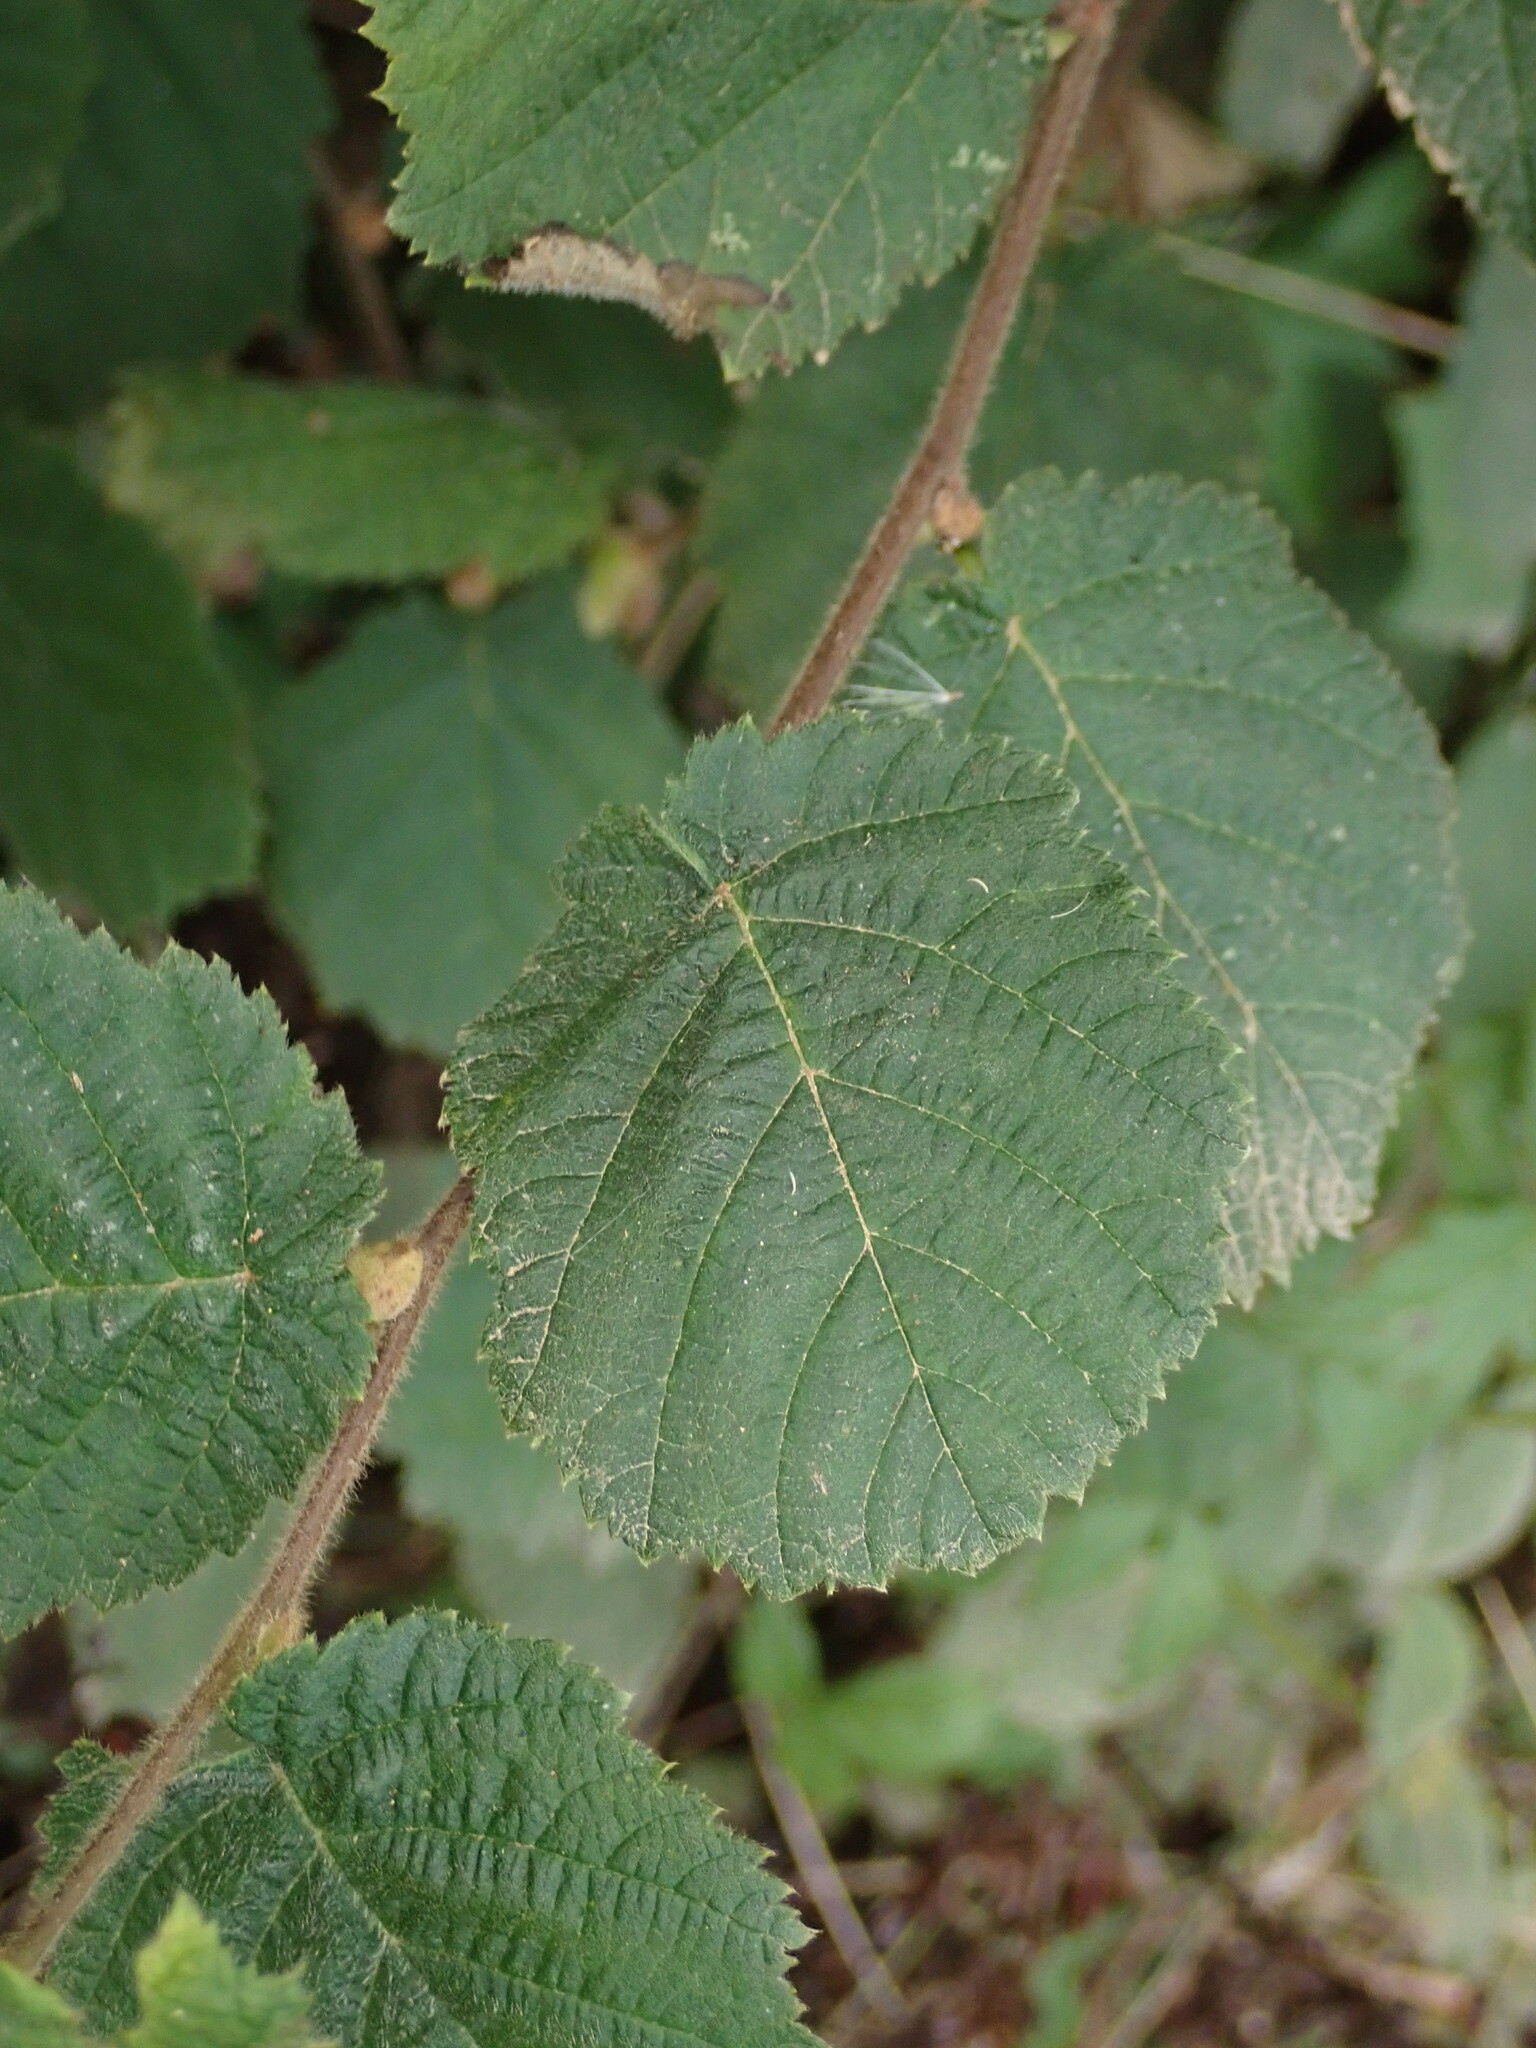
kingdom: Plantae
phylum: Tracheophyta
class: Magnoliopsida
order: Fagales
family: Betulaceae
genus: Corylus
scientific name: Corylus cornuta
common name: Beaked hazel
